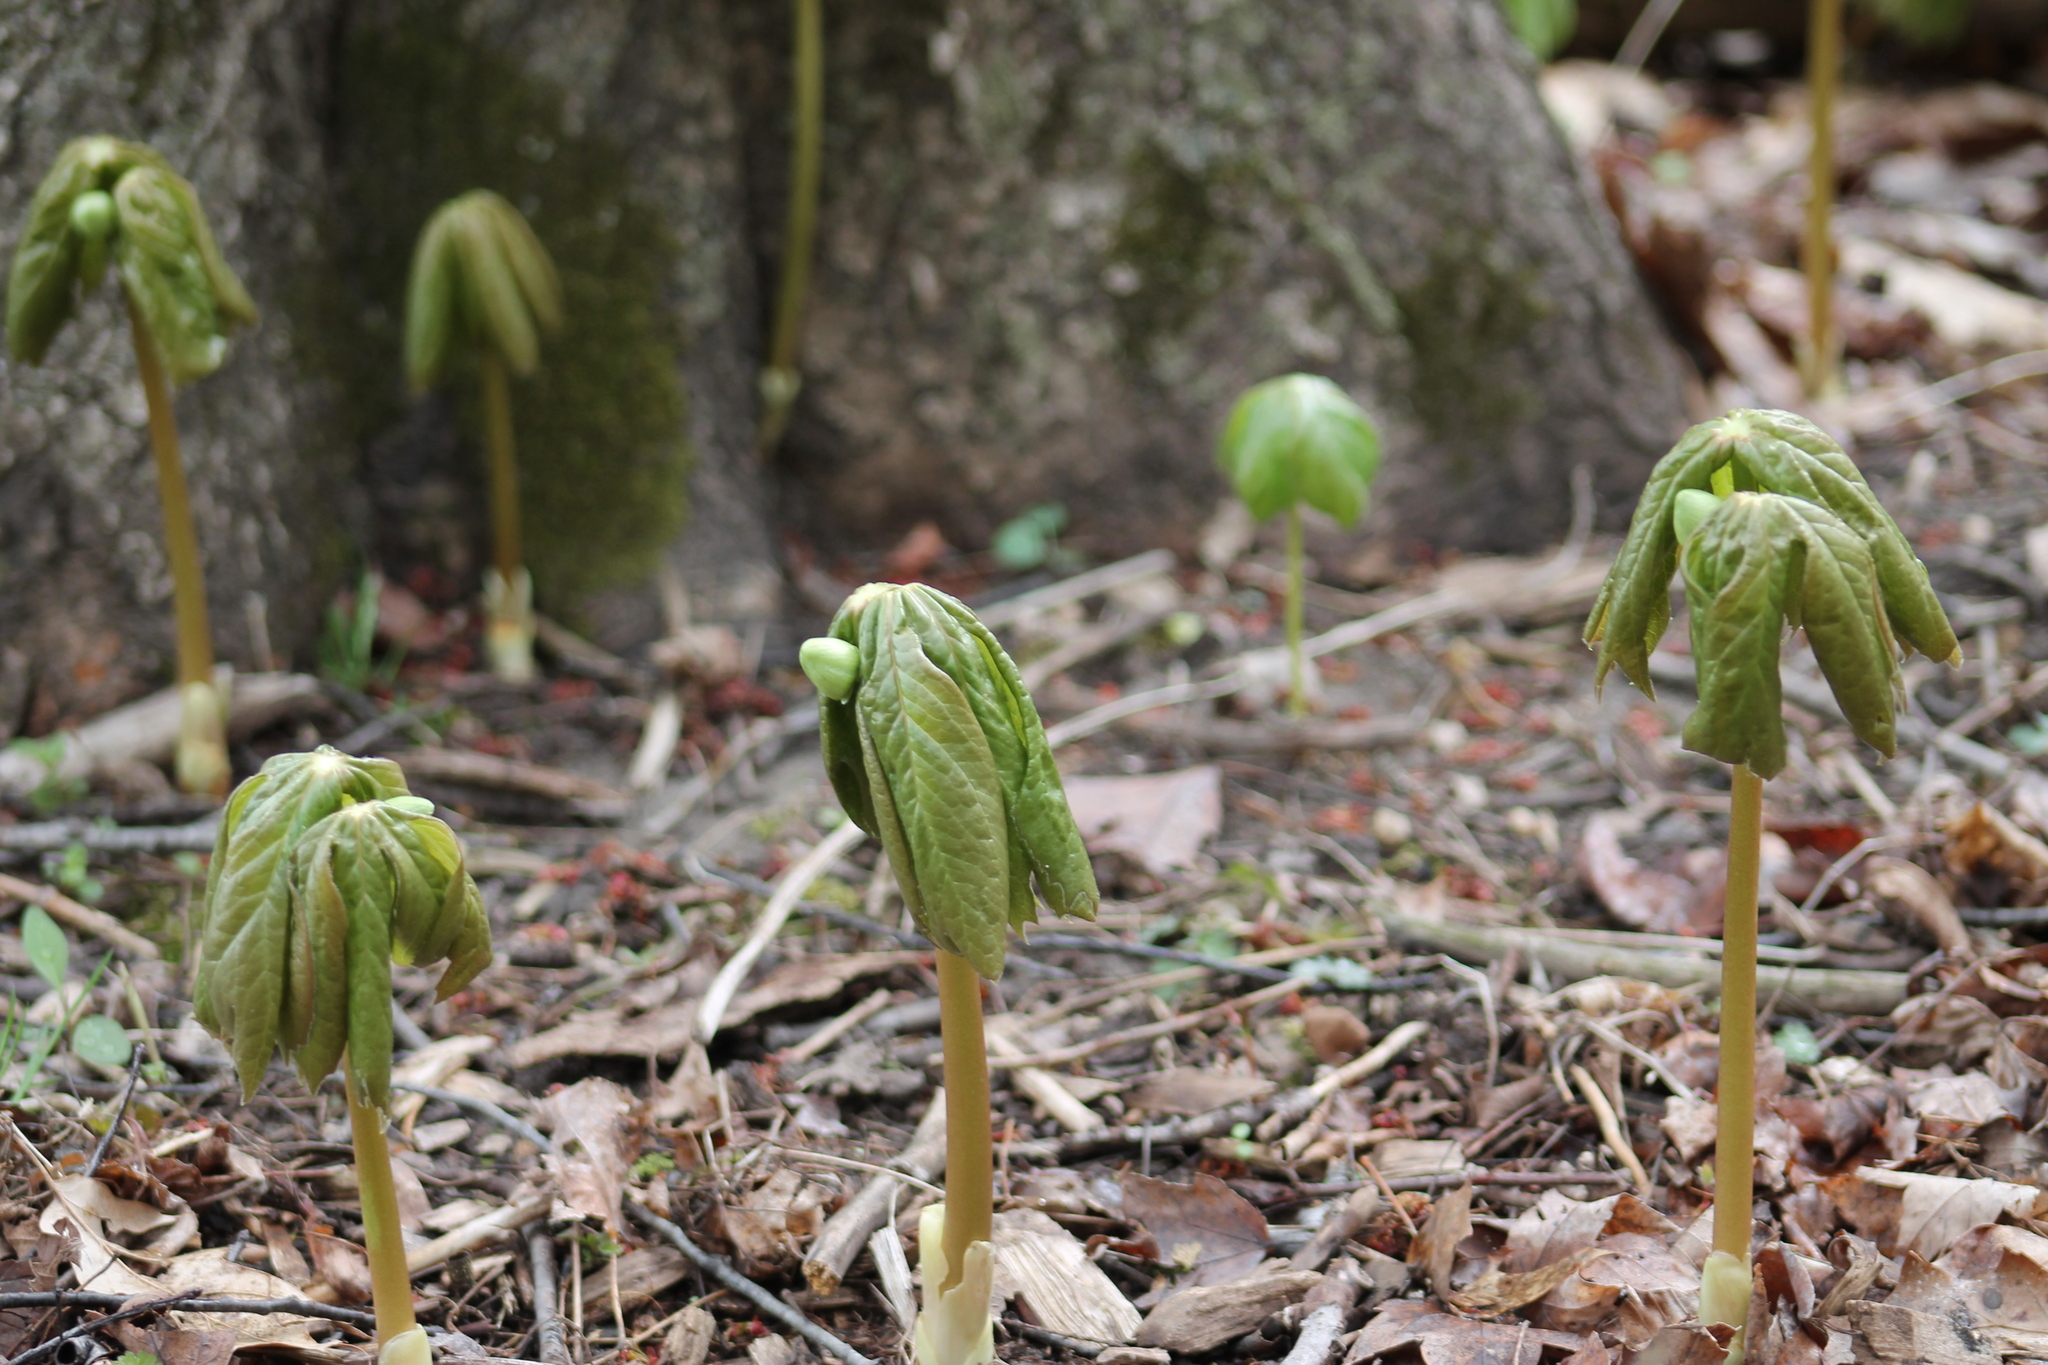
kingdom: Plantae
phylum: Tracheophyta
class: Magnoliopsida
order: Ranunculales
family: Berberidaceae
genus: Podophyllum
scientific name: Podophyllum peltatum
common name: Wild mandrake
